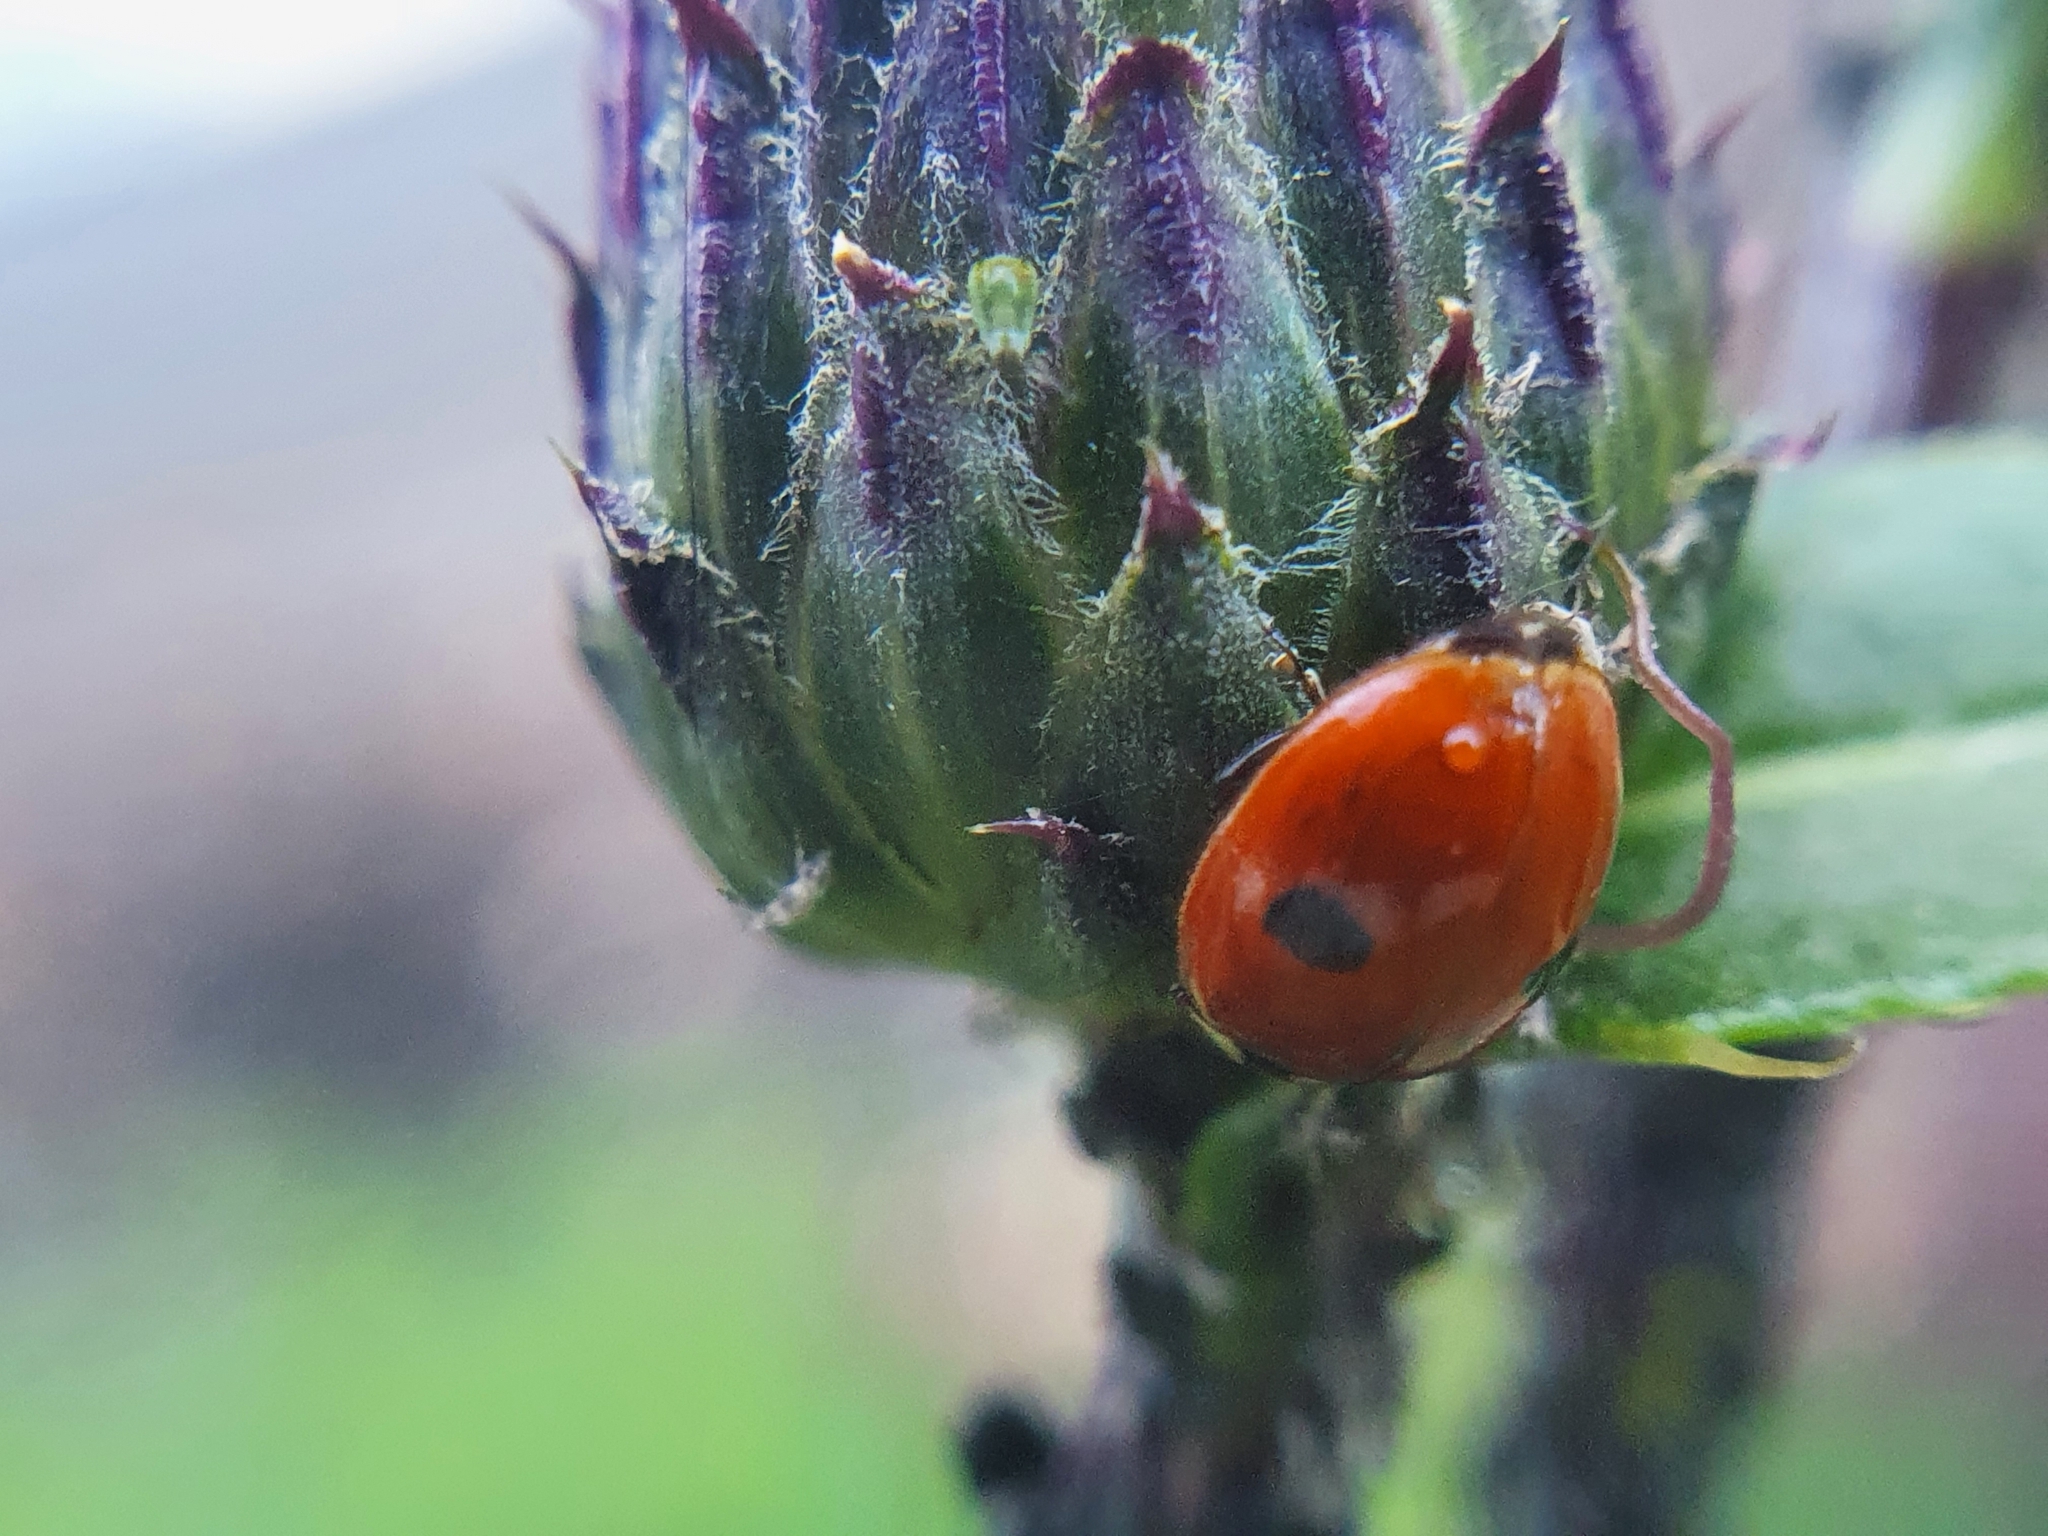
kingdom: Animalia
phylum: Arthropoda
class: Insecta
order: Coleoptera
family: Coccinellidae
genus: Adalia
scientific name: Adalia bipunctata
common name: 2-spot ladybird
